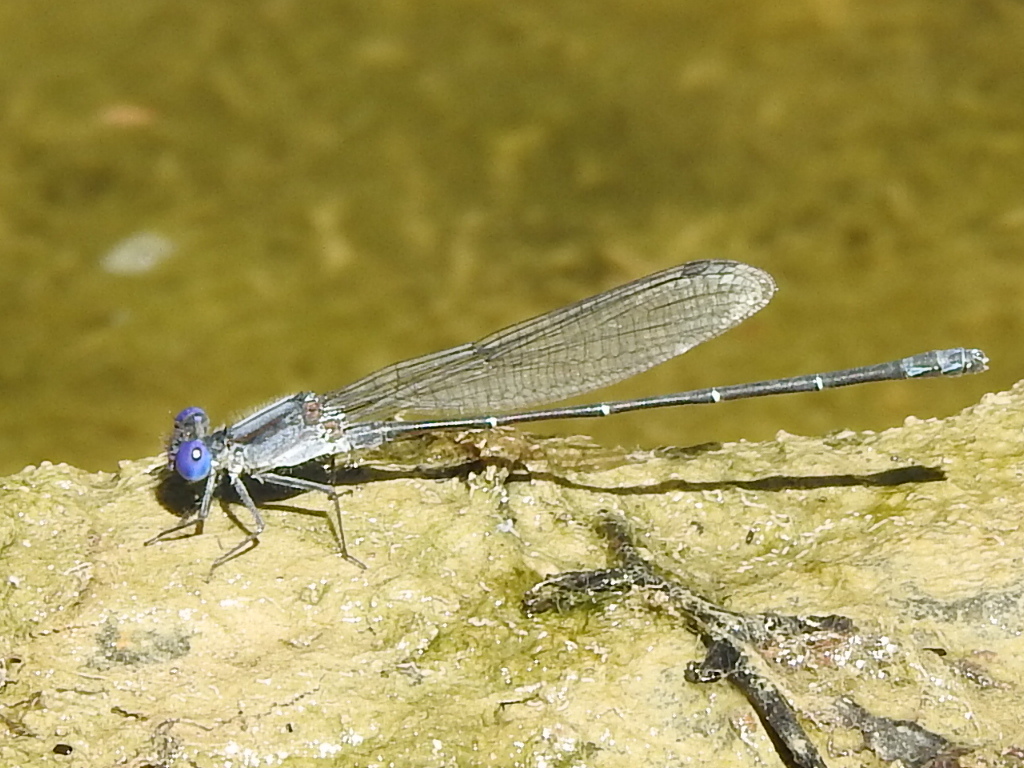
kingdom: Animalia
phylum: Arthropoda
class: Insecta
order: Odonata
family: Coenagrionidae
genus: Argia
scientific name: Argia translata
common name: Dusky dancer
